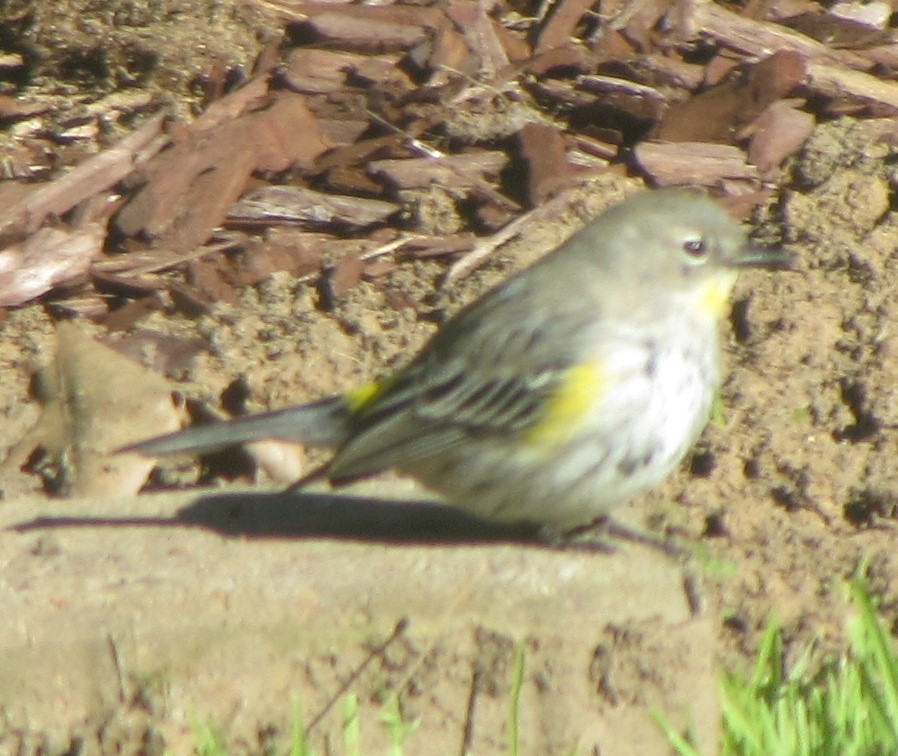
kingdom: Animalia
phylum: Chordata
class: Aves
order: Passeriformes
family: Parulidae
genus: Setophaga
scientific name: Setophaga coronata
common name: Myrtle warbler
